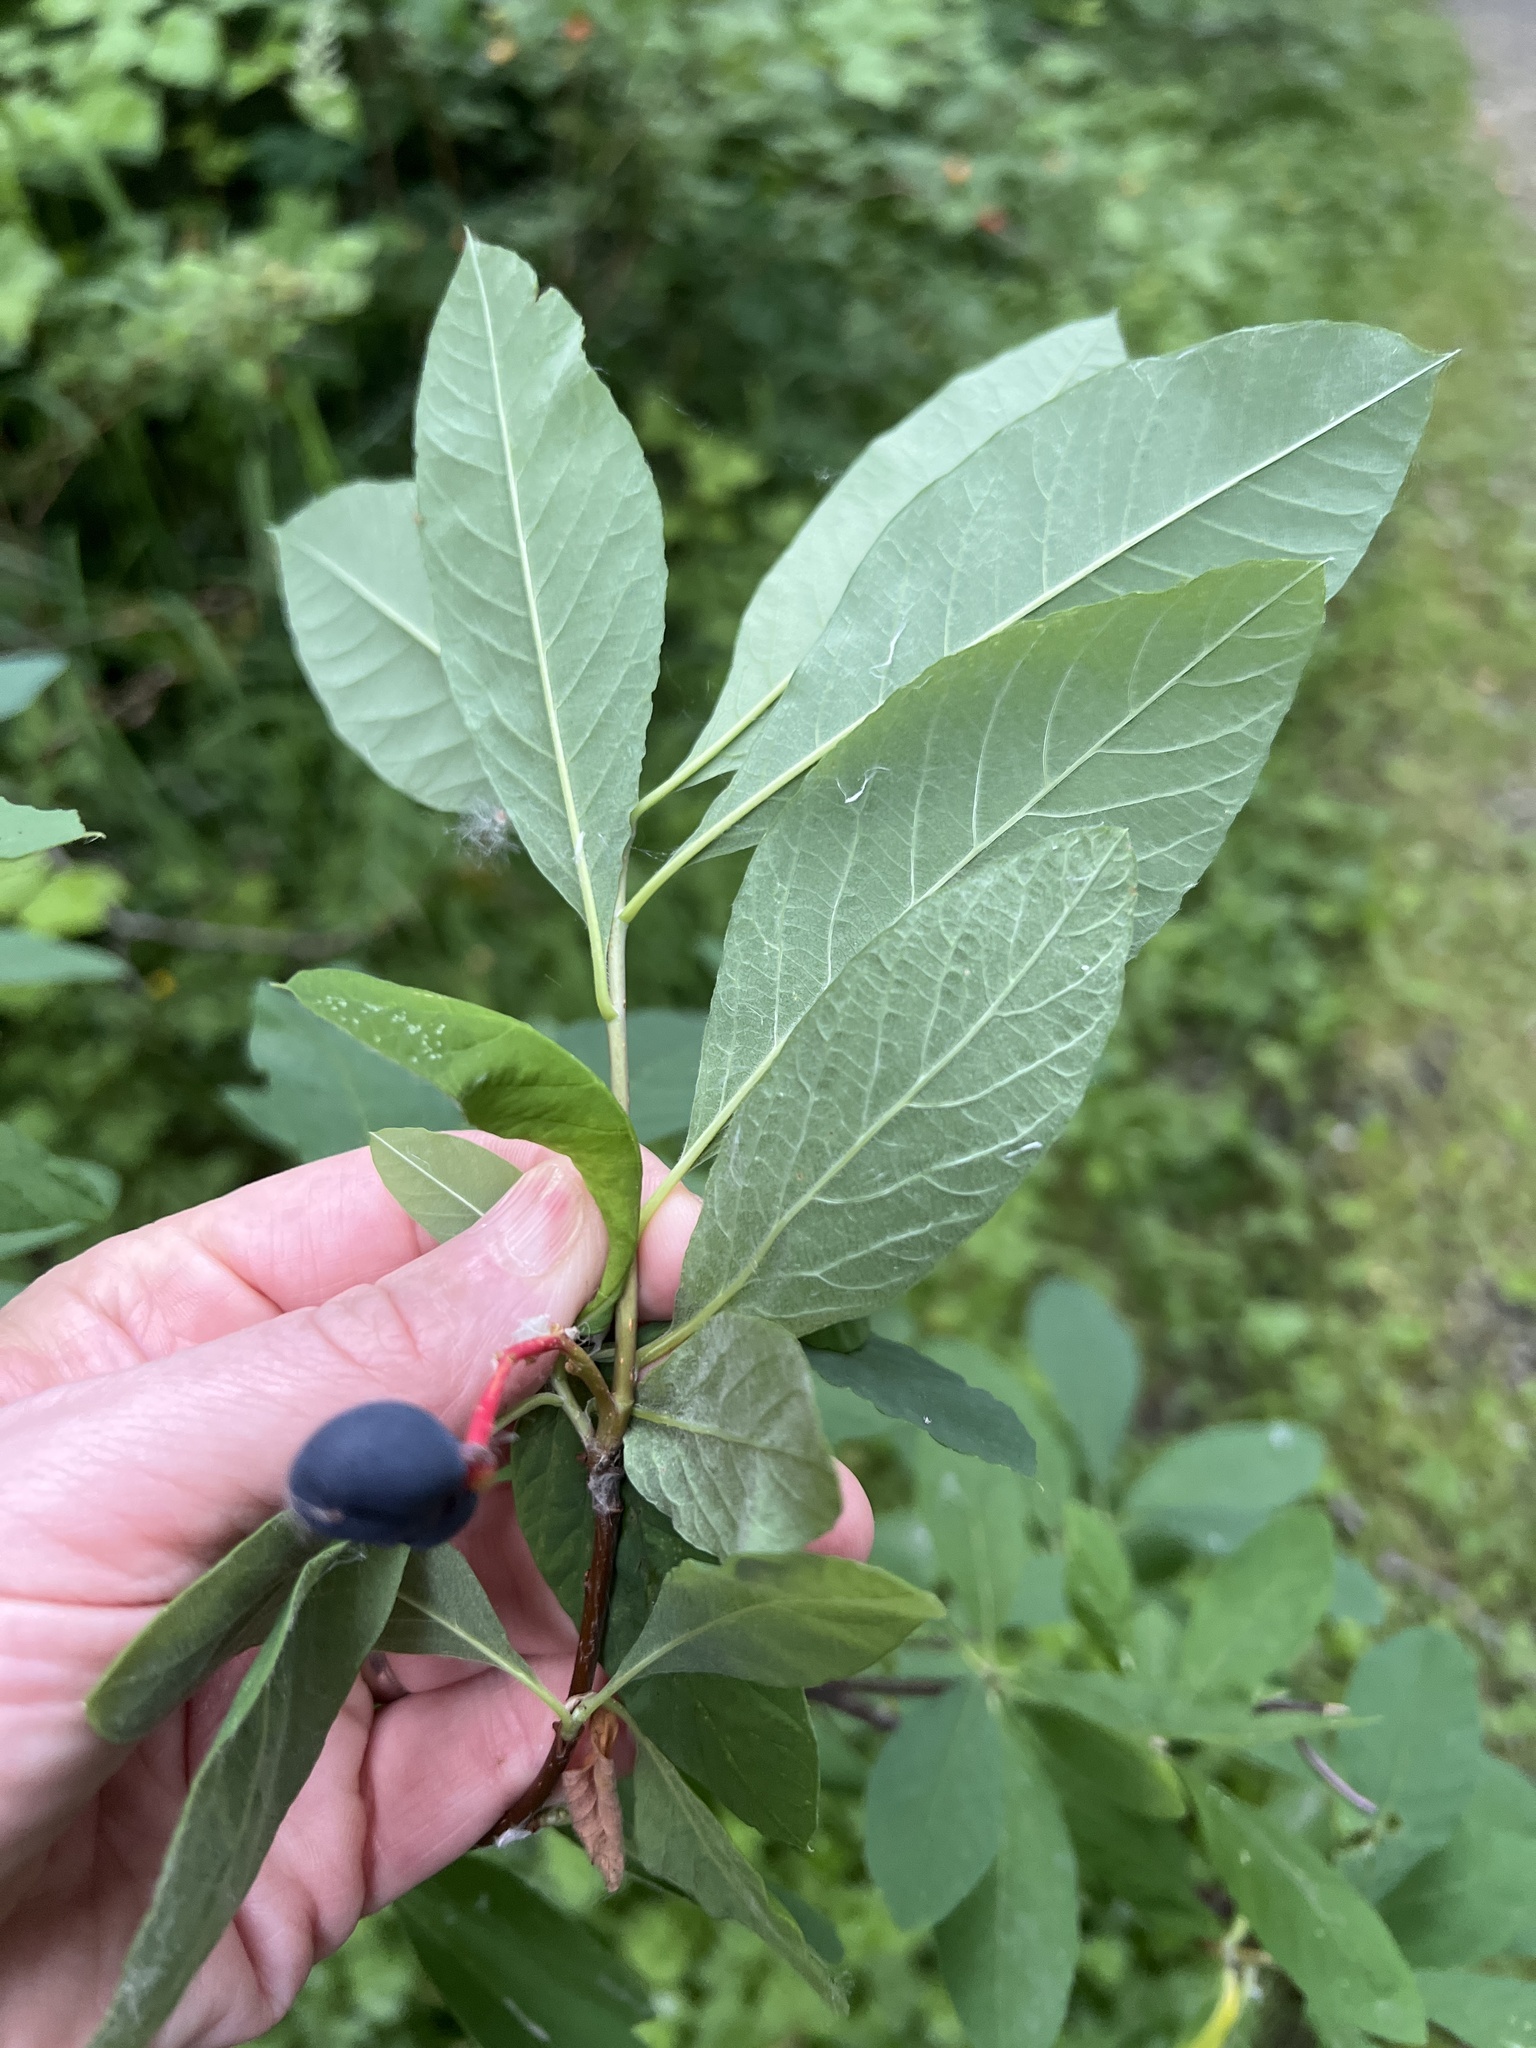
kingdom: Plantae
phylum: Tracheophyta
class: Magnoliopsida
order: Rosales
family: Rosaceae
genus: Oemleria
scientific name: Oemleria cerasiformis
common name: Osoberry
